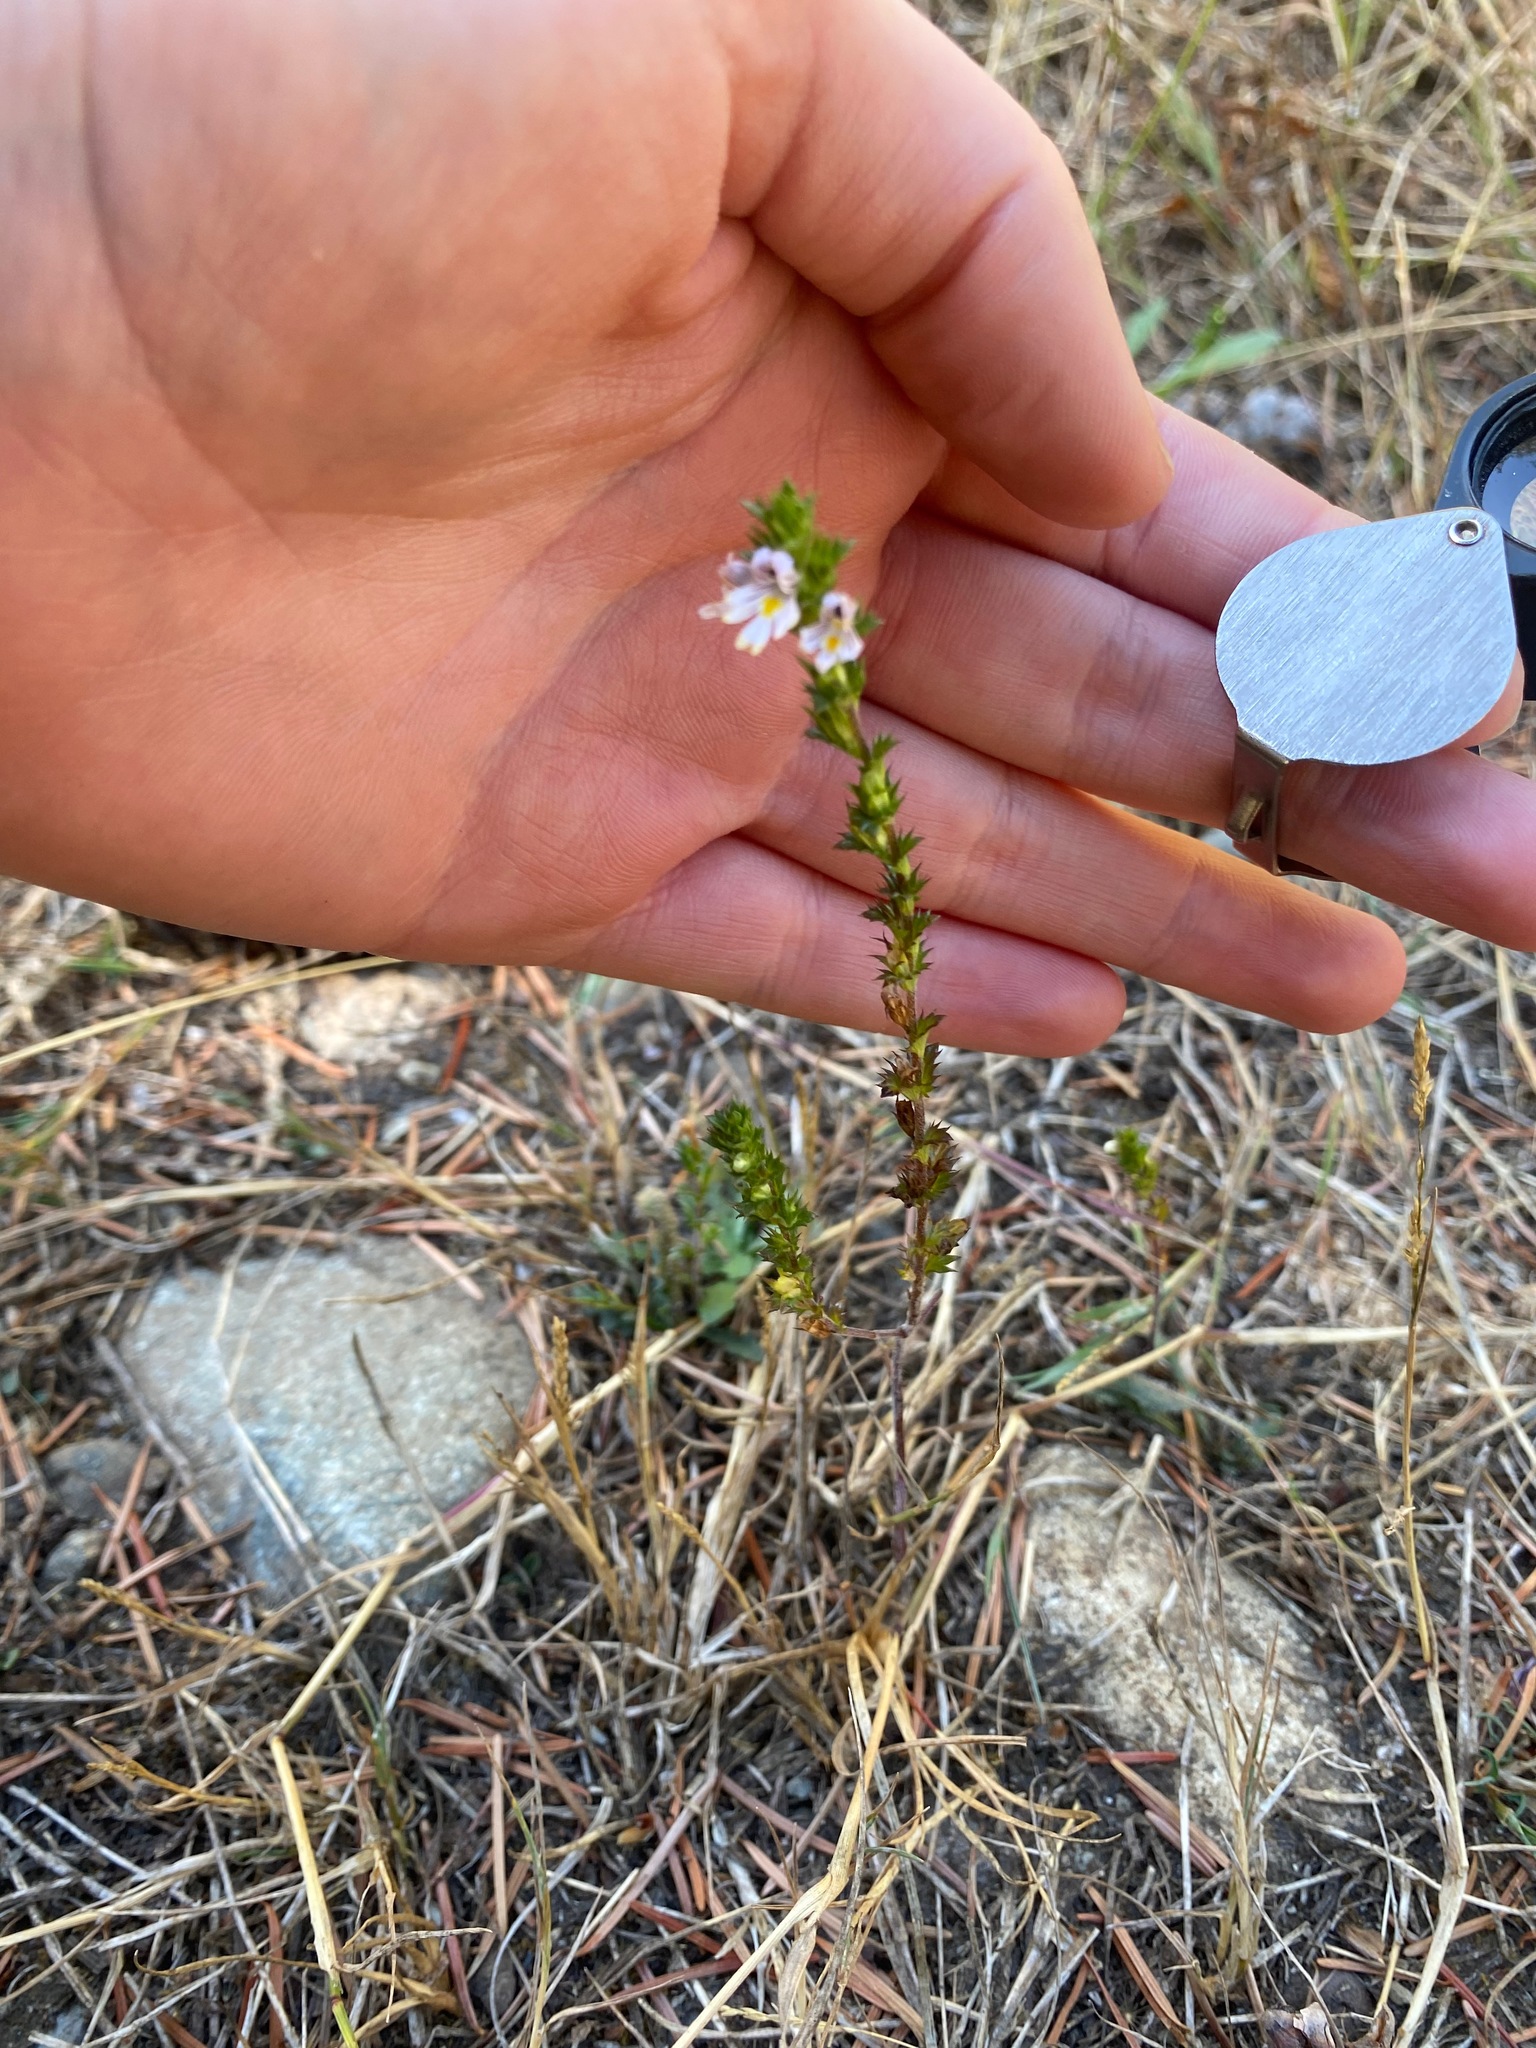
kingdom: Plantae
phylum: Tracheophyta
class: Magnoliopsida
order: Lamiales
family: Orobanchaceae
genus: Euphrasia
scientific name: Euphrasia nemorosa
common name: Common eyebright
